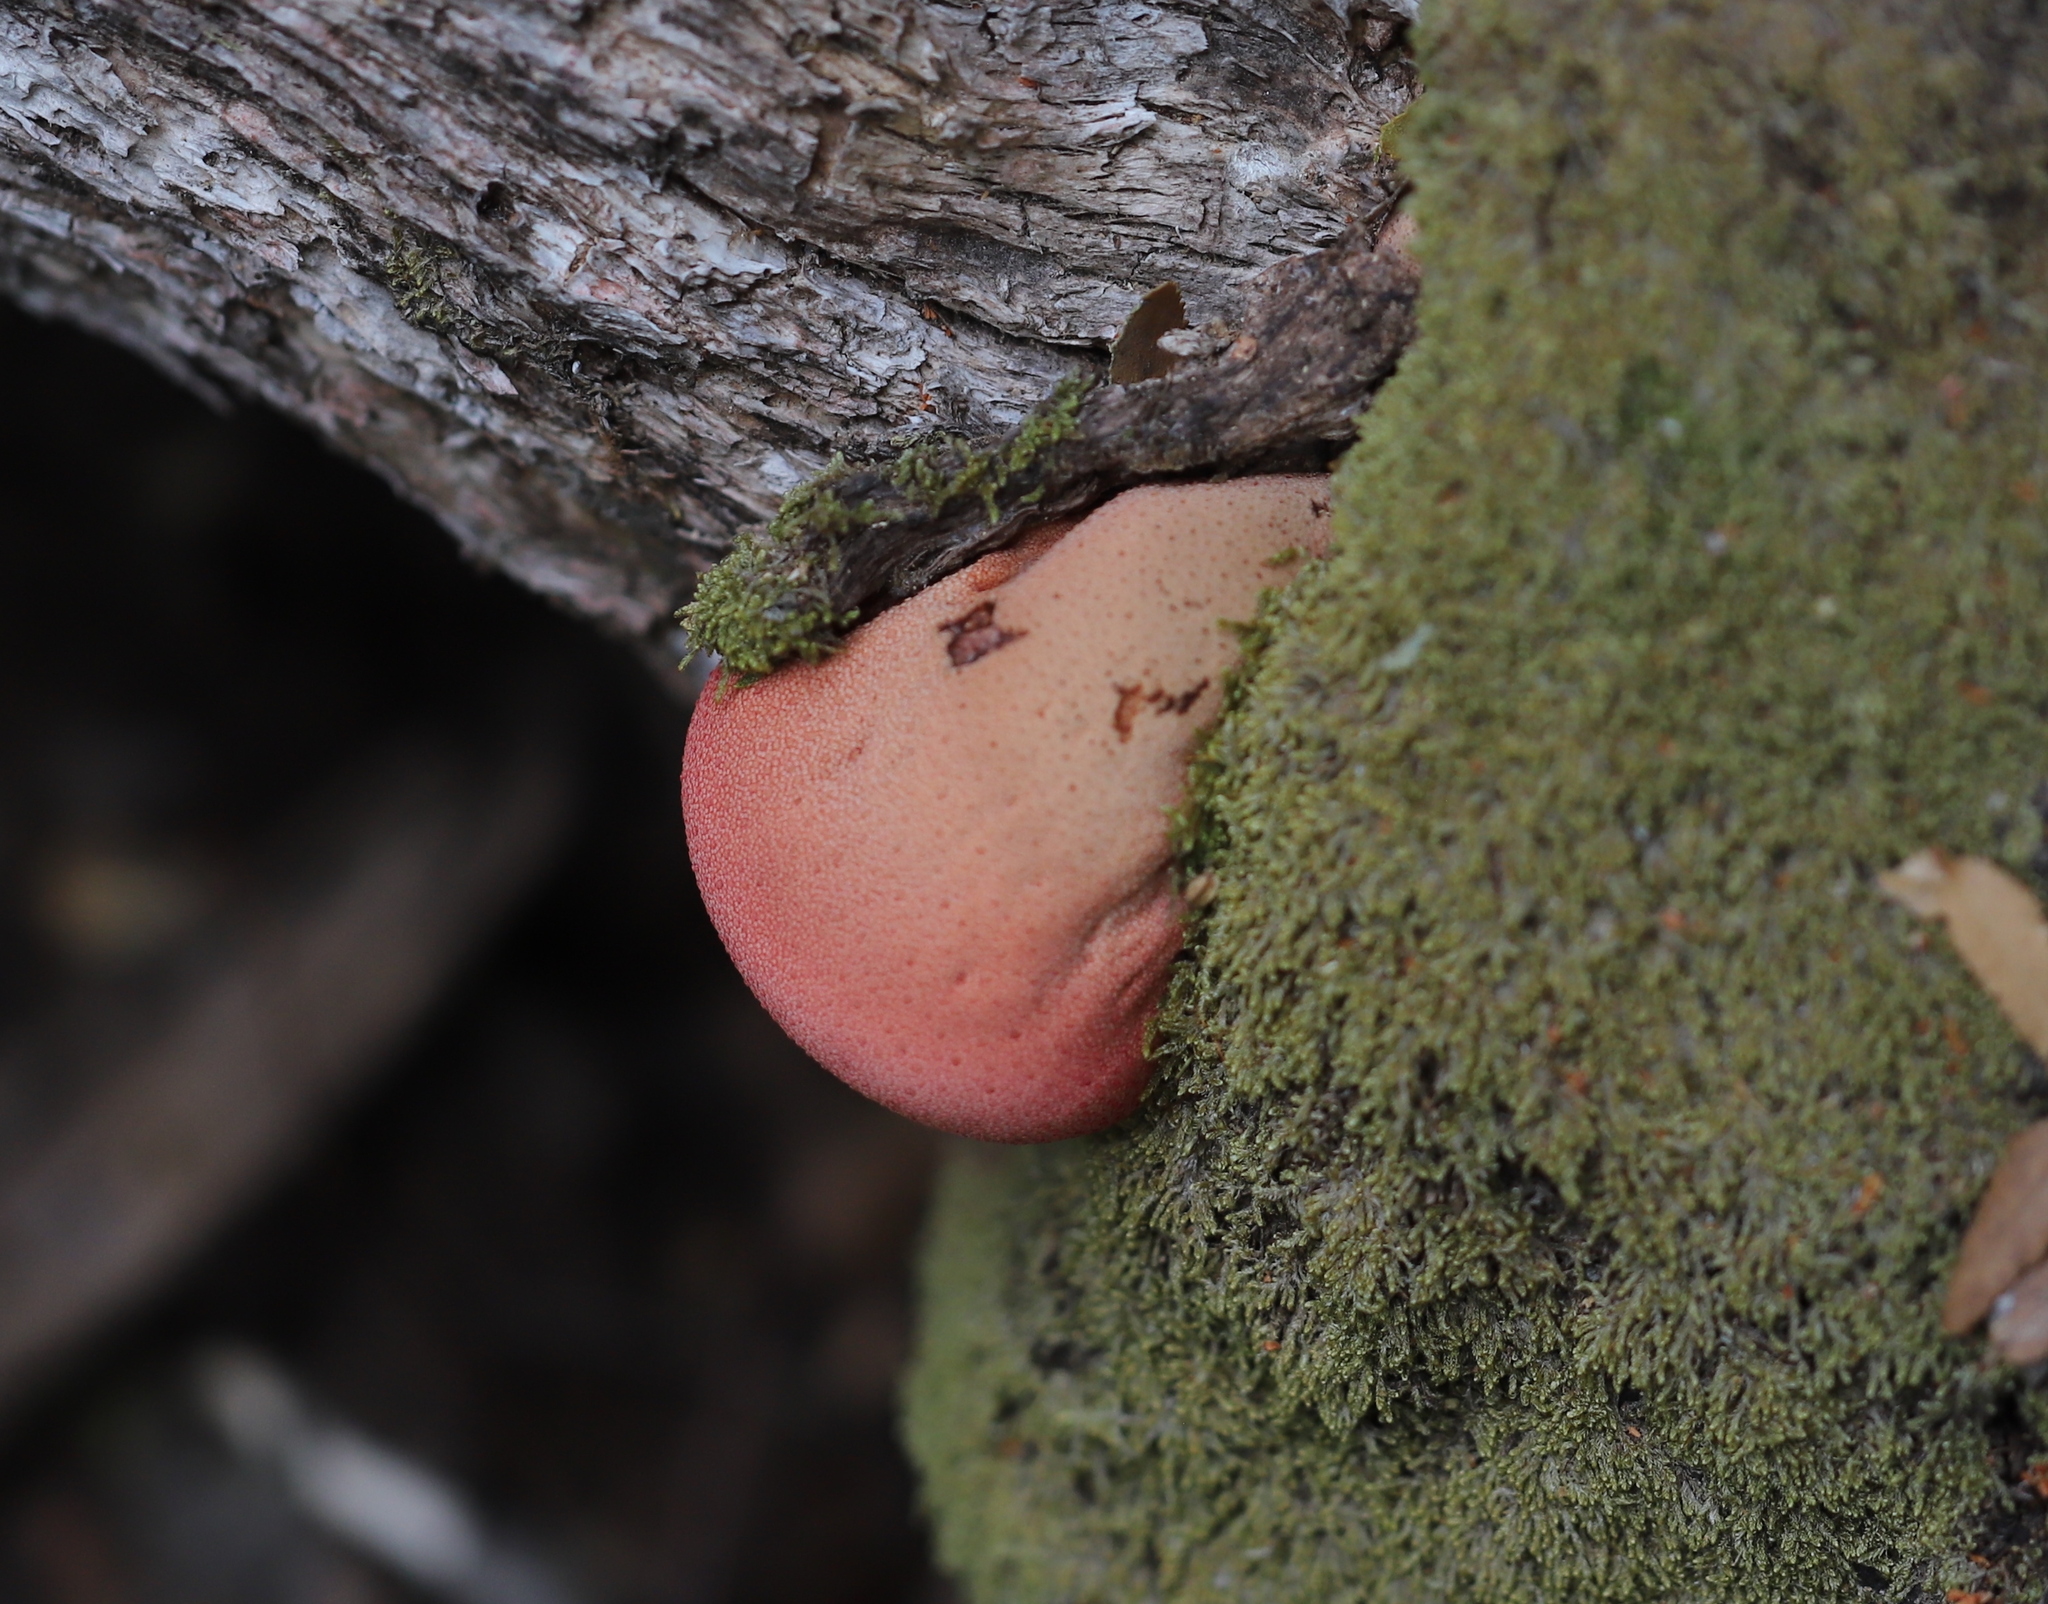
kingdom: Fungi
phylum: Basidiomycota
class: Agaricomycetes
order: Agaricales
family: Fistulinaceae
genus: Fistulina
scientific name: Fistulina antarctica
